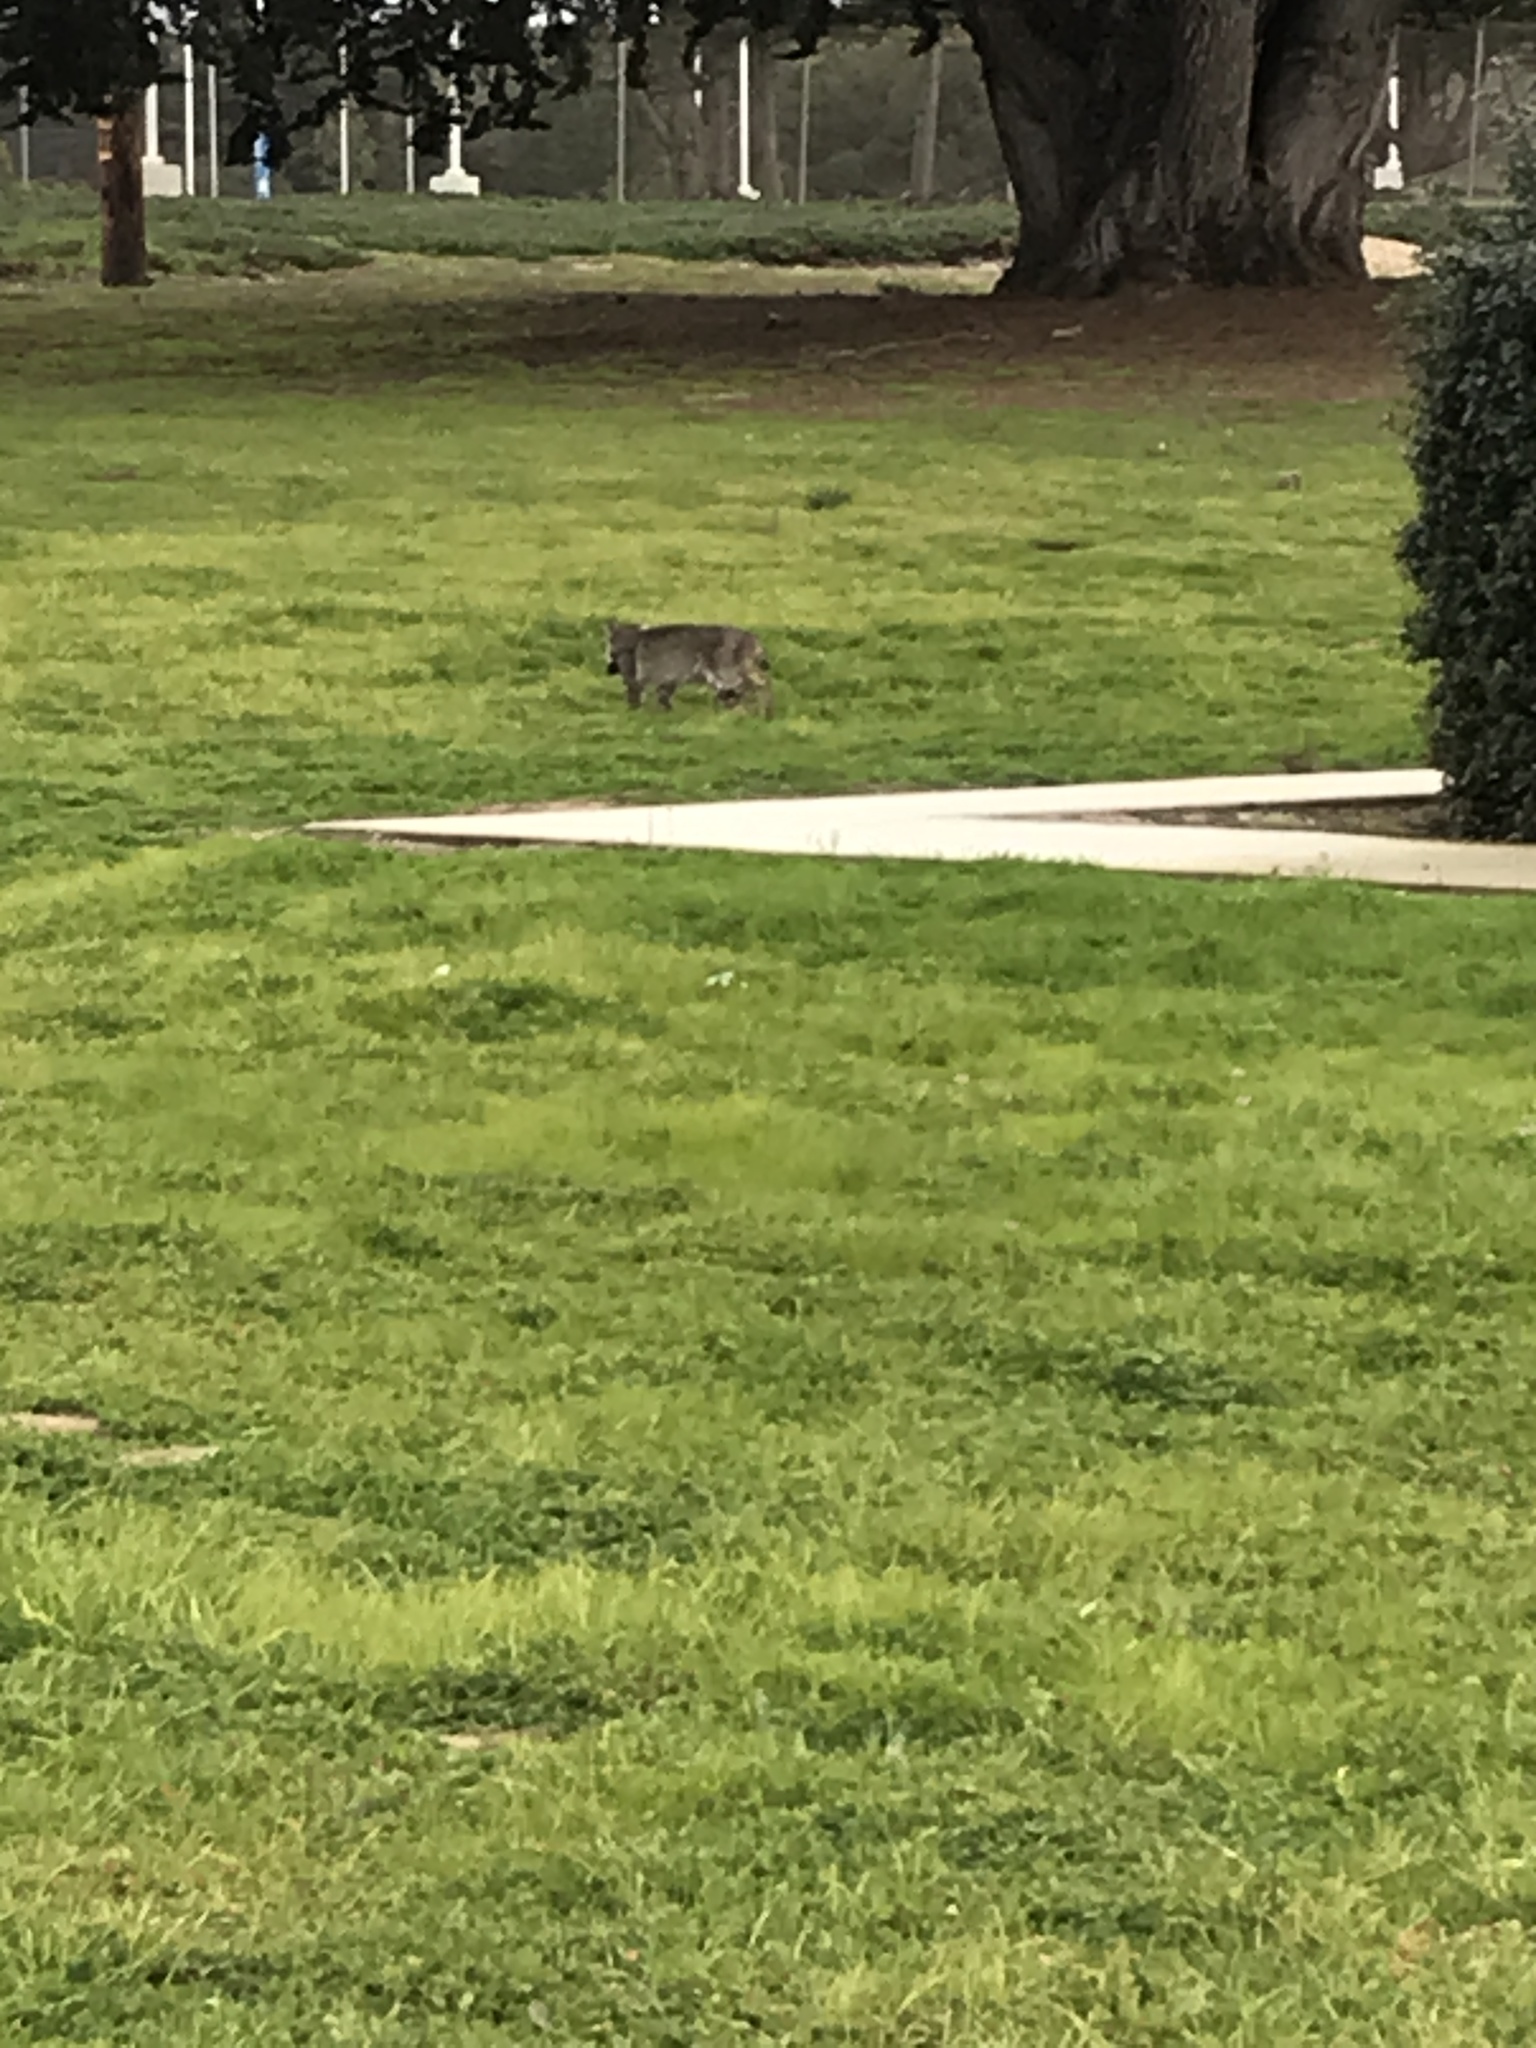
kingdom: Animalia
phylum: Chordata
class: Mammalia
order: Carnivora
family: Felidae
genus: Lynx
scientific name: Lynx rufus
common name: Bobcat
